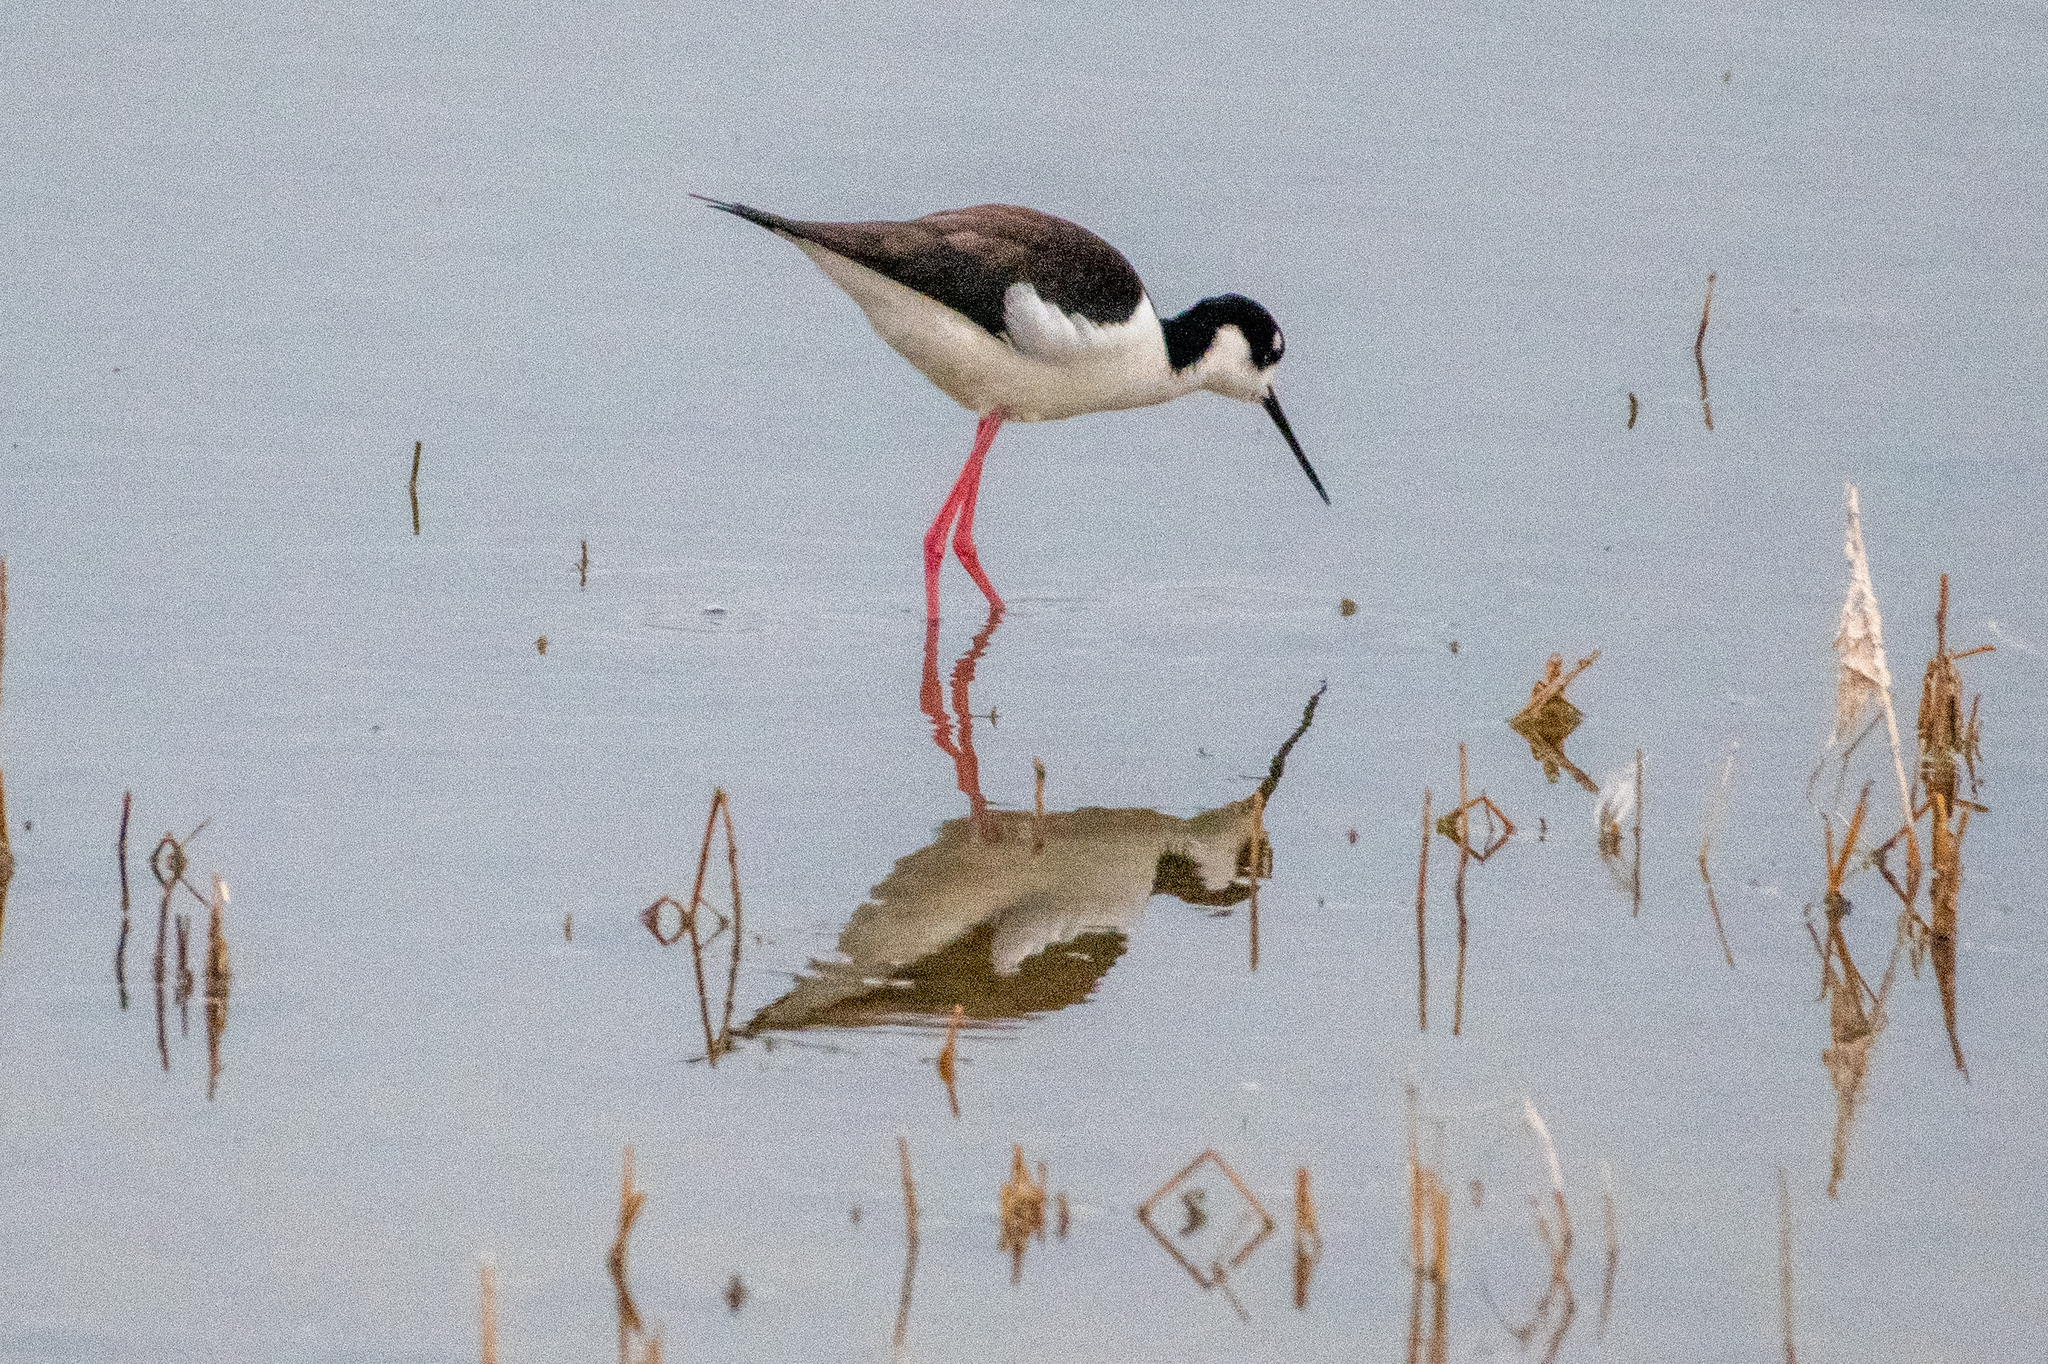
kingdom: Animalia
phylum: Chordata
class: Aves
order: Charadriiformes
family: Recurvirostridae
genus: Himantopus
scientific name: Himantopus mexicanus
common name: Black-necked stilt
